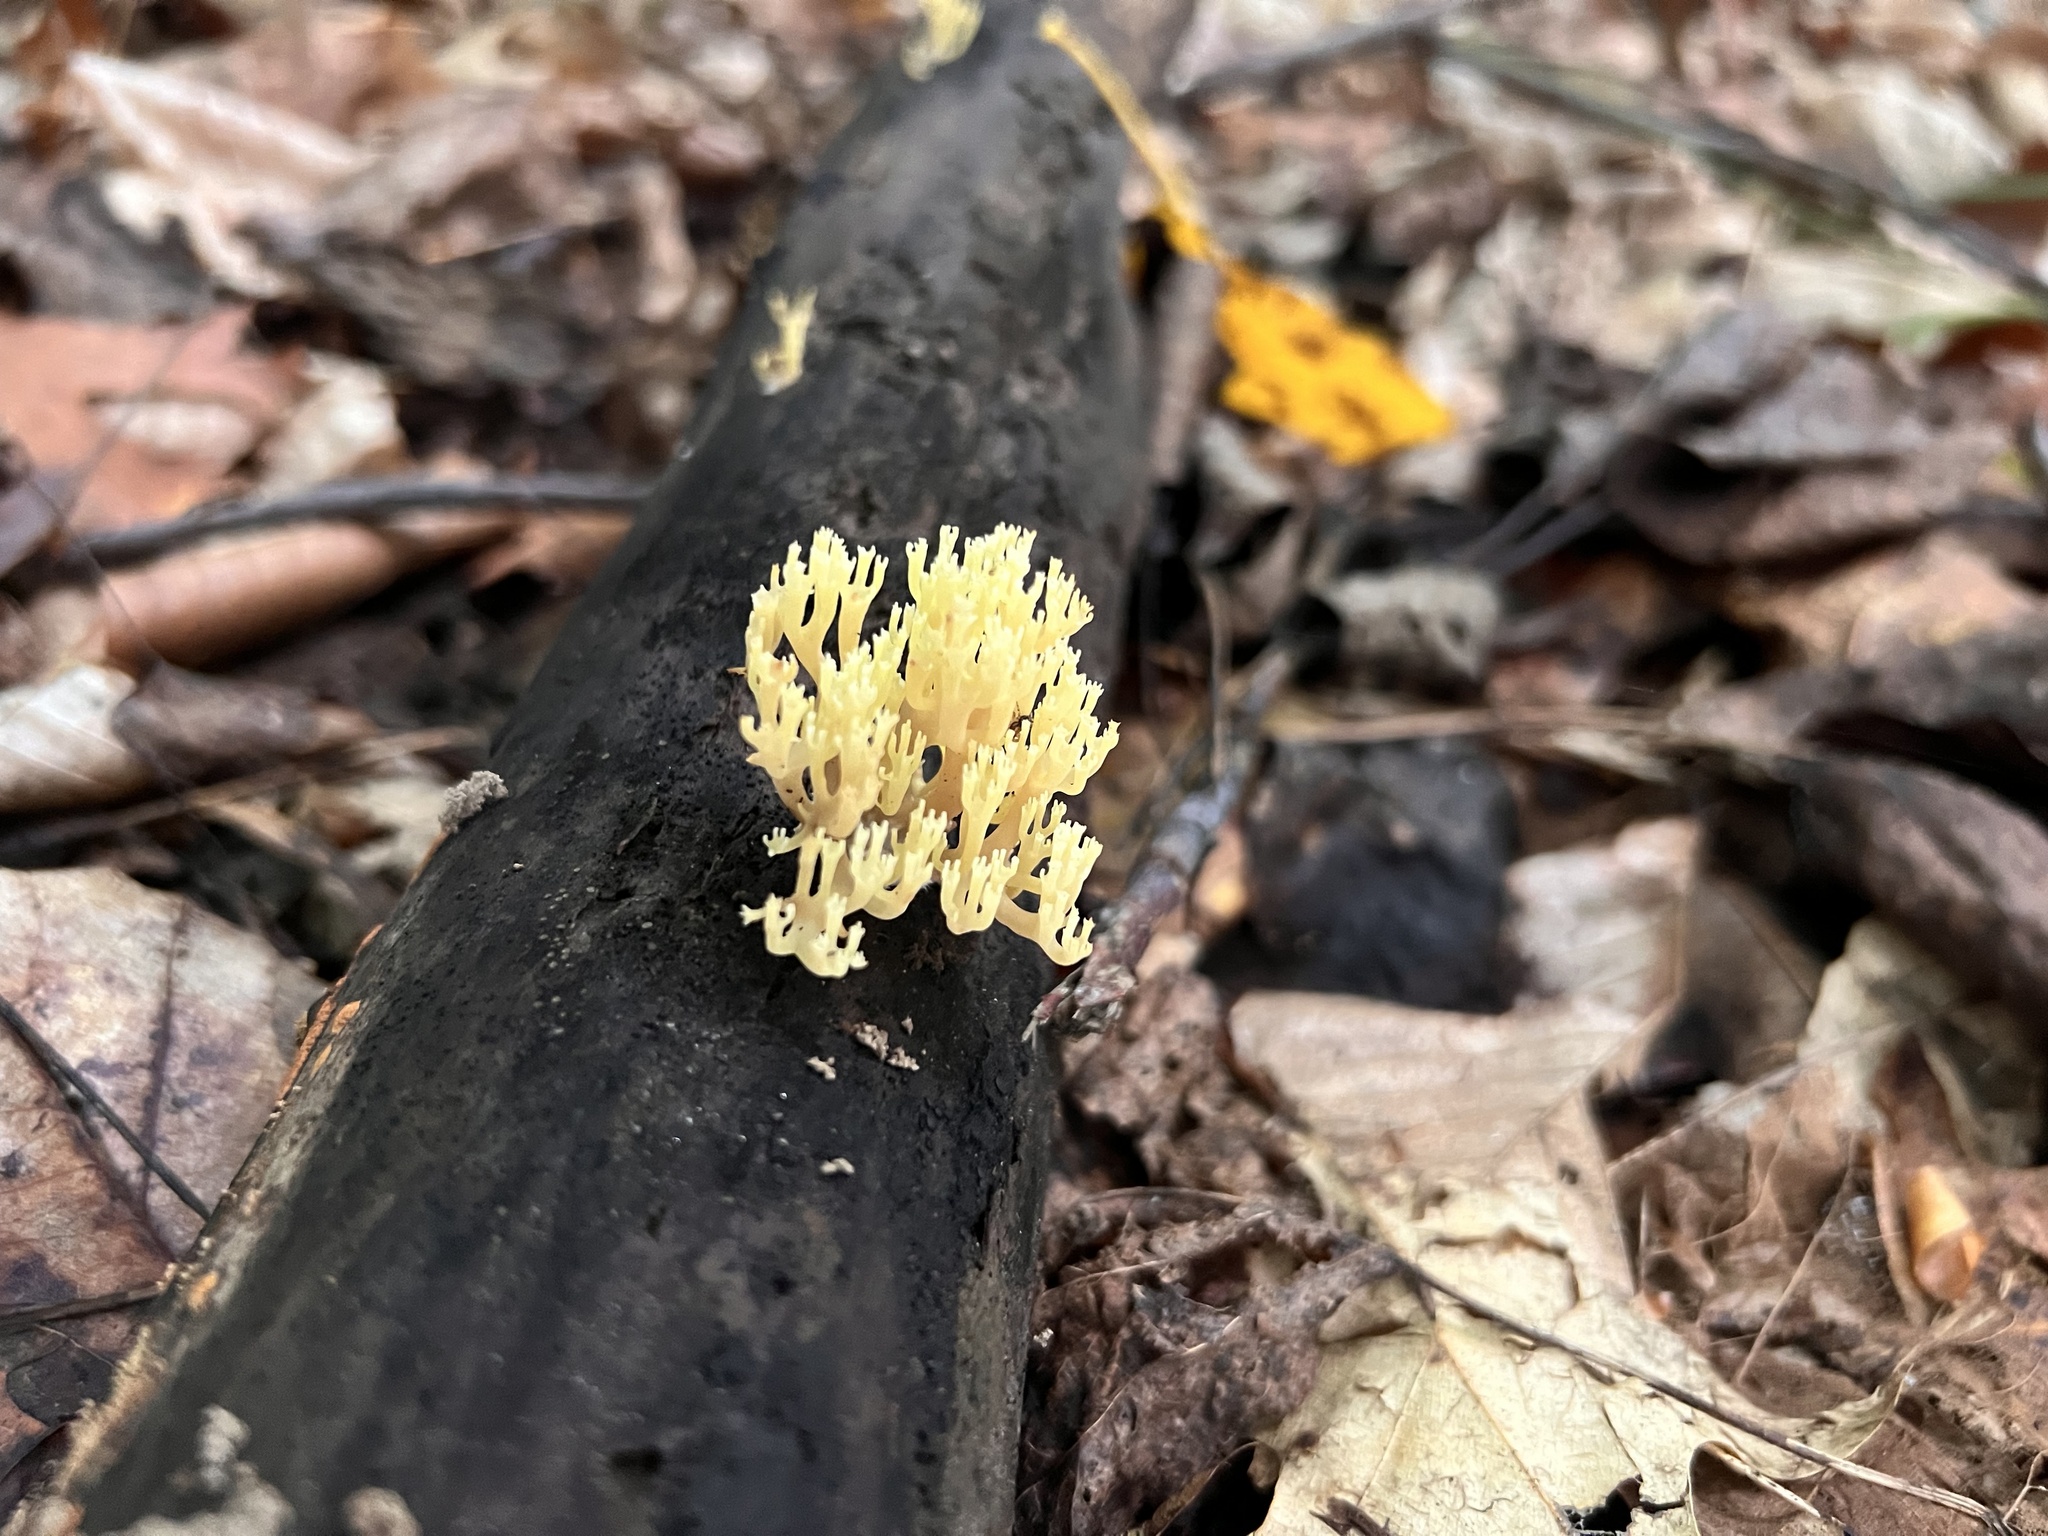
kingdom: Fungi
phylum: Basidiomycota
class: Agaricomycetes
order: Russulales
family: Auriscalpiaceae
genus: Artomyces
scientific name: Artomyces pyxidatus
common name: Crown-tipped coral fungus
